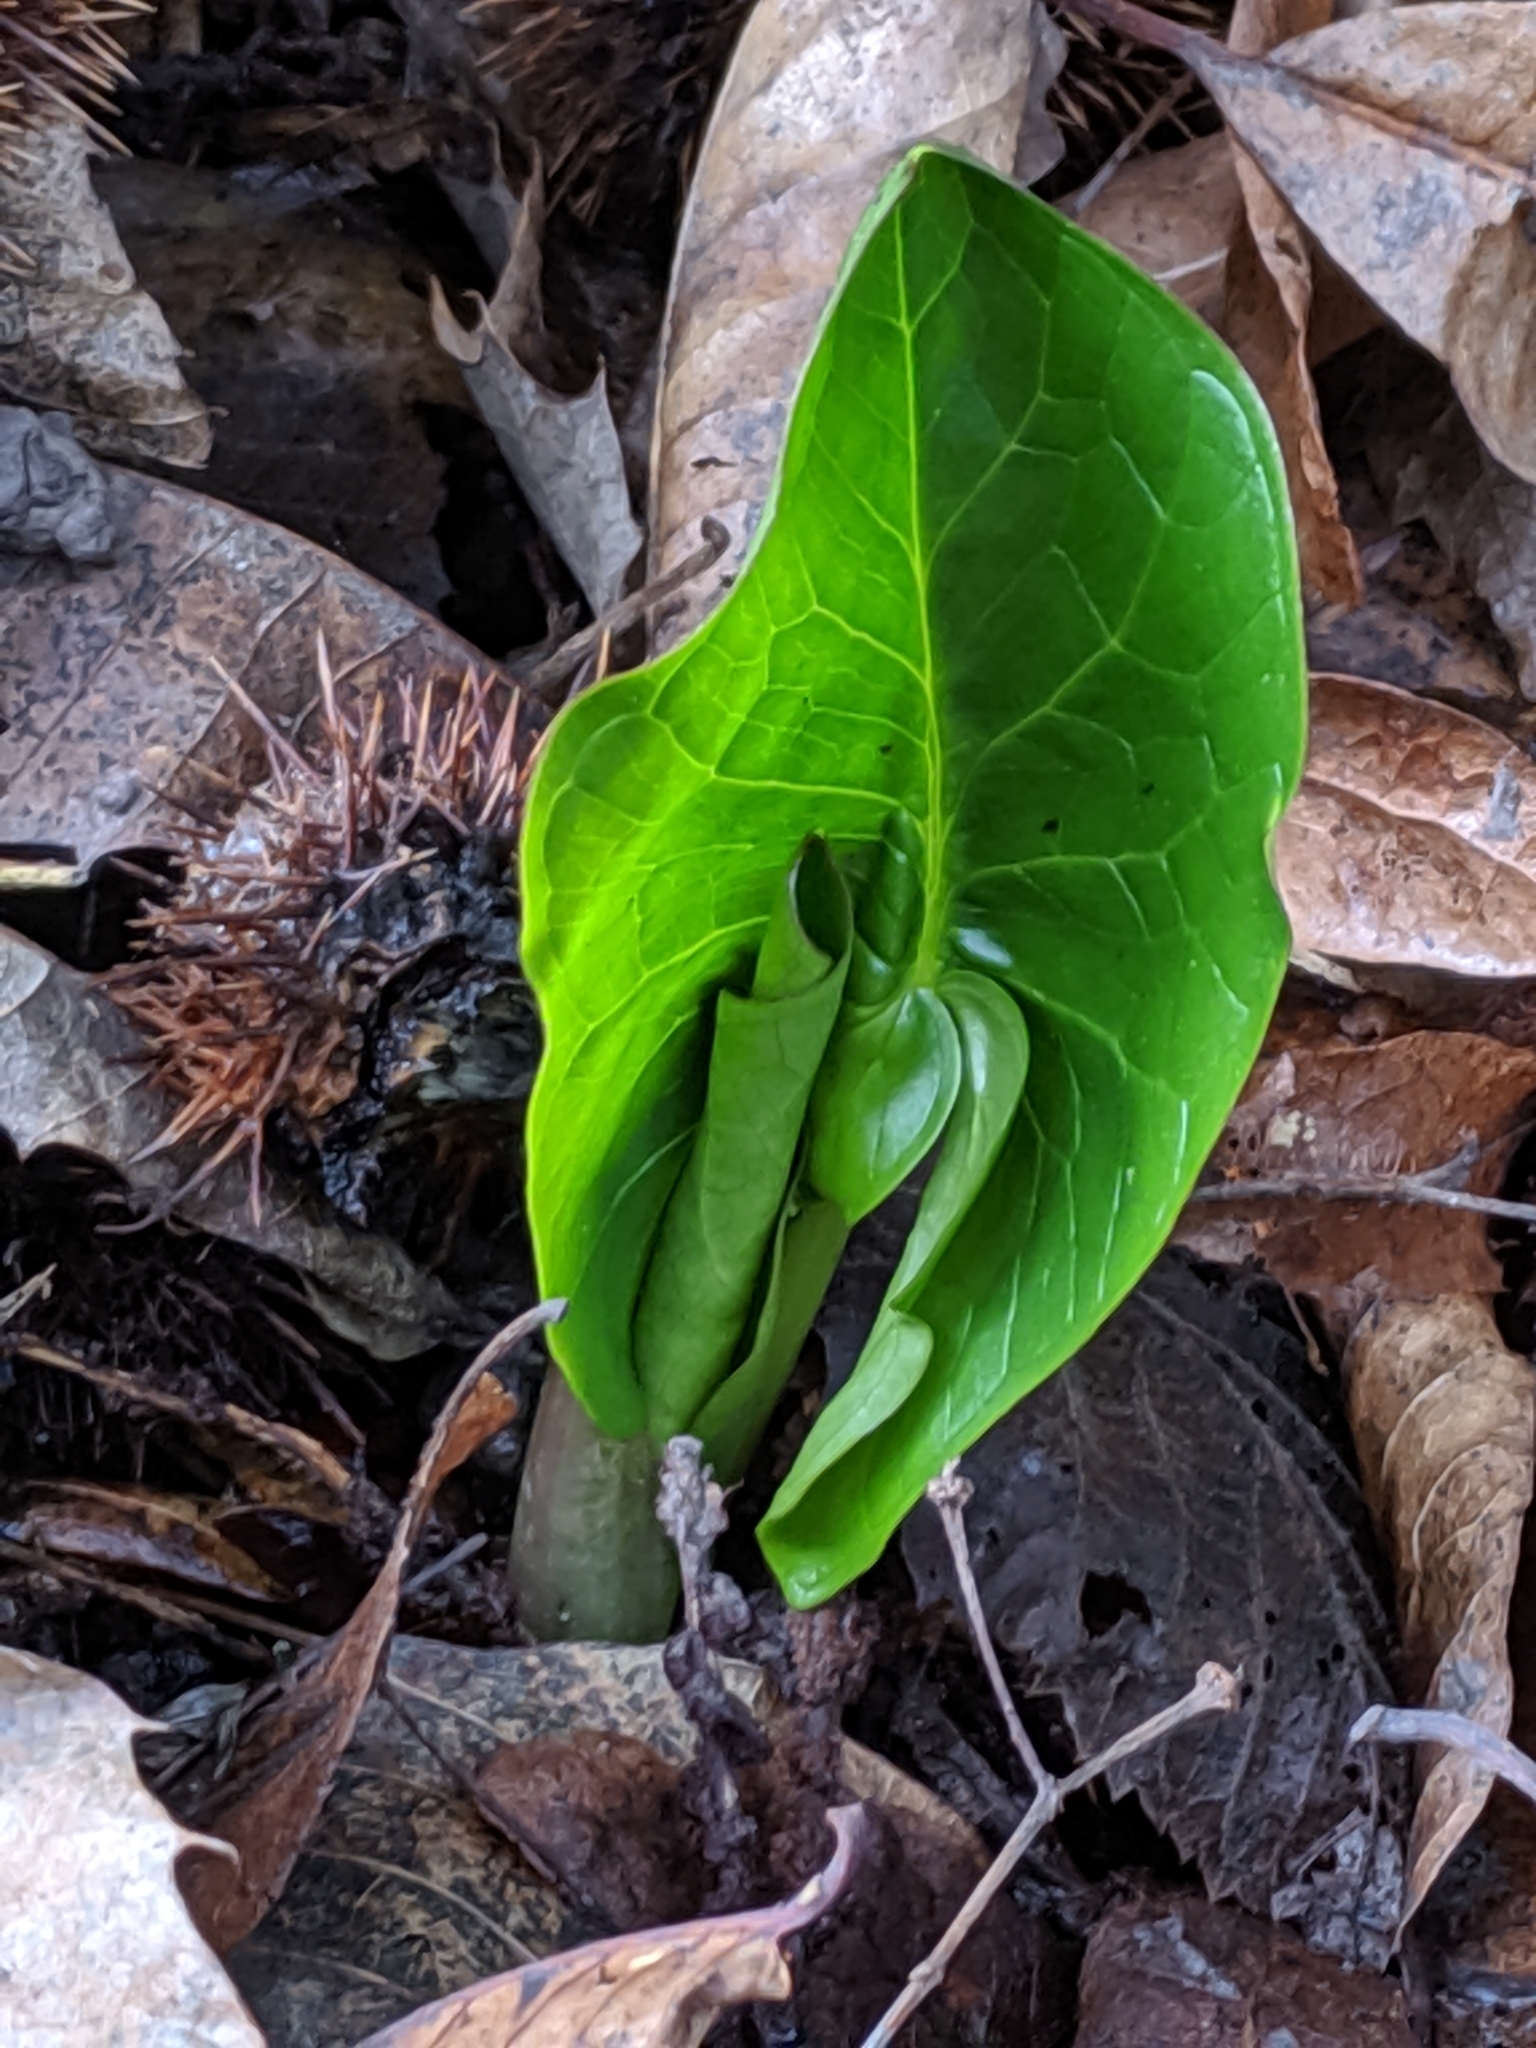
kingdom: Plantae
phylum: Tracheophyta
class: Liliopsida
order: Alismatales
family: Araceae
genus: Arum
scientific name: Arum maculatum
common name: Lords-and-ladies
